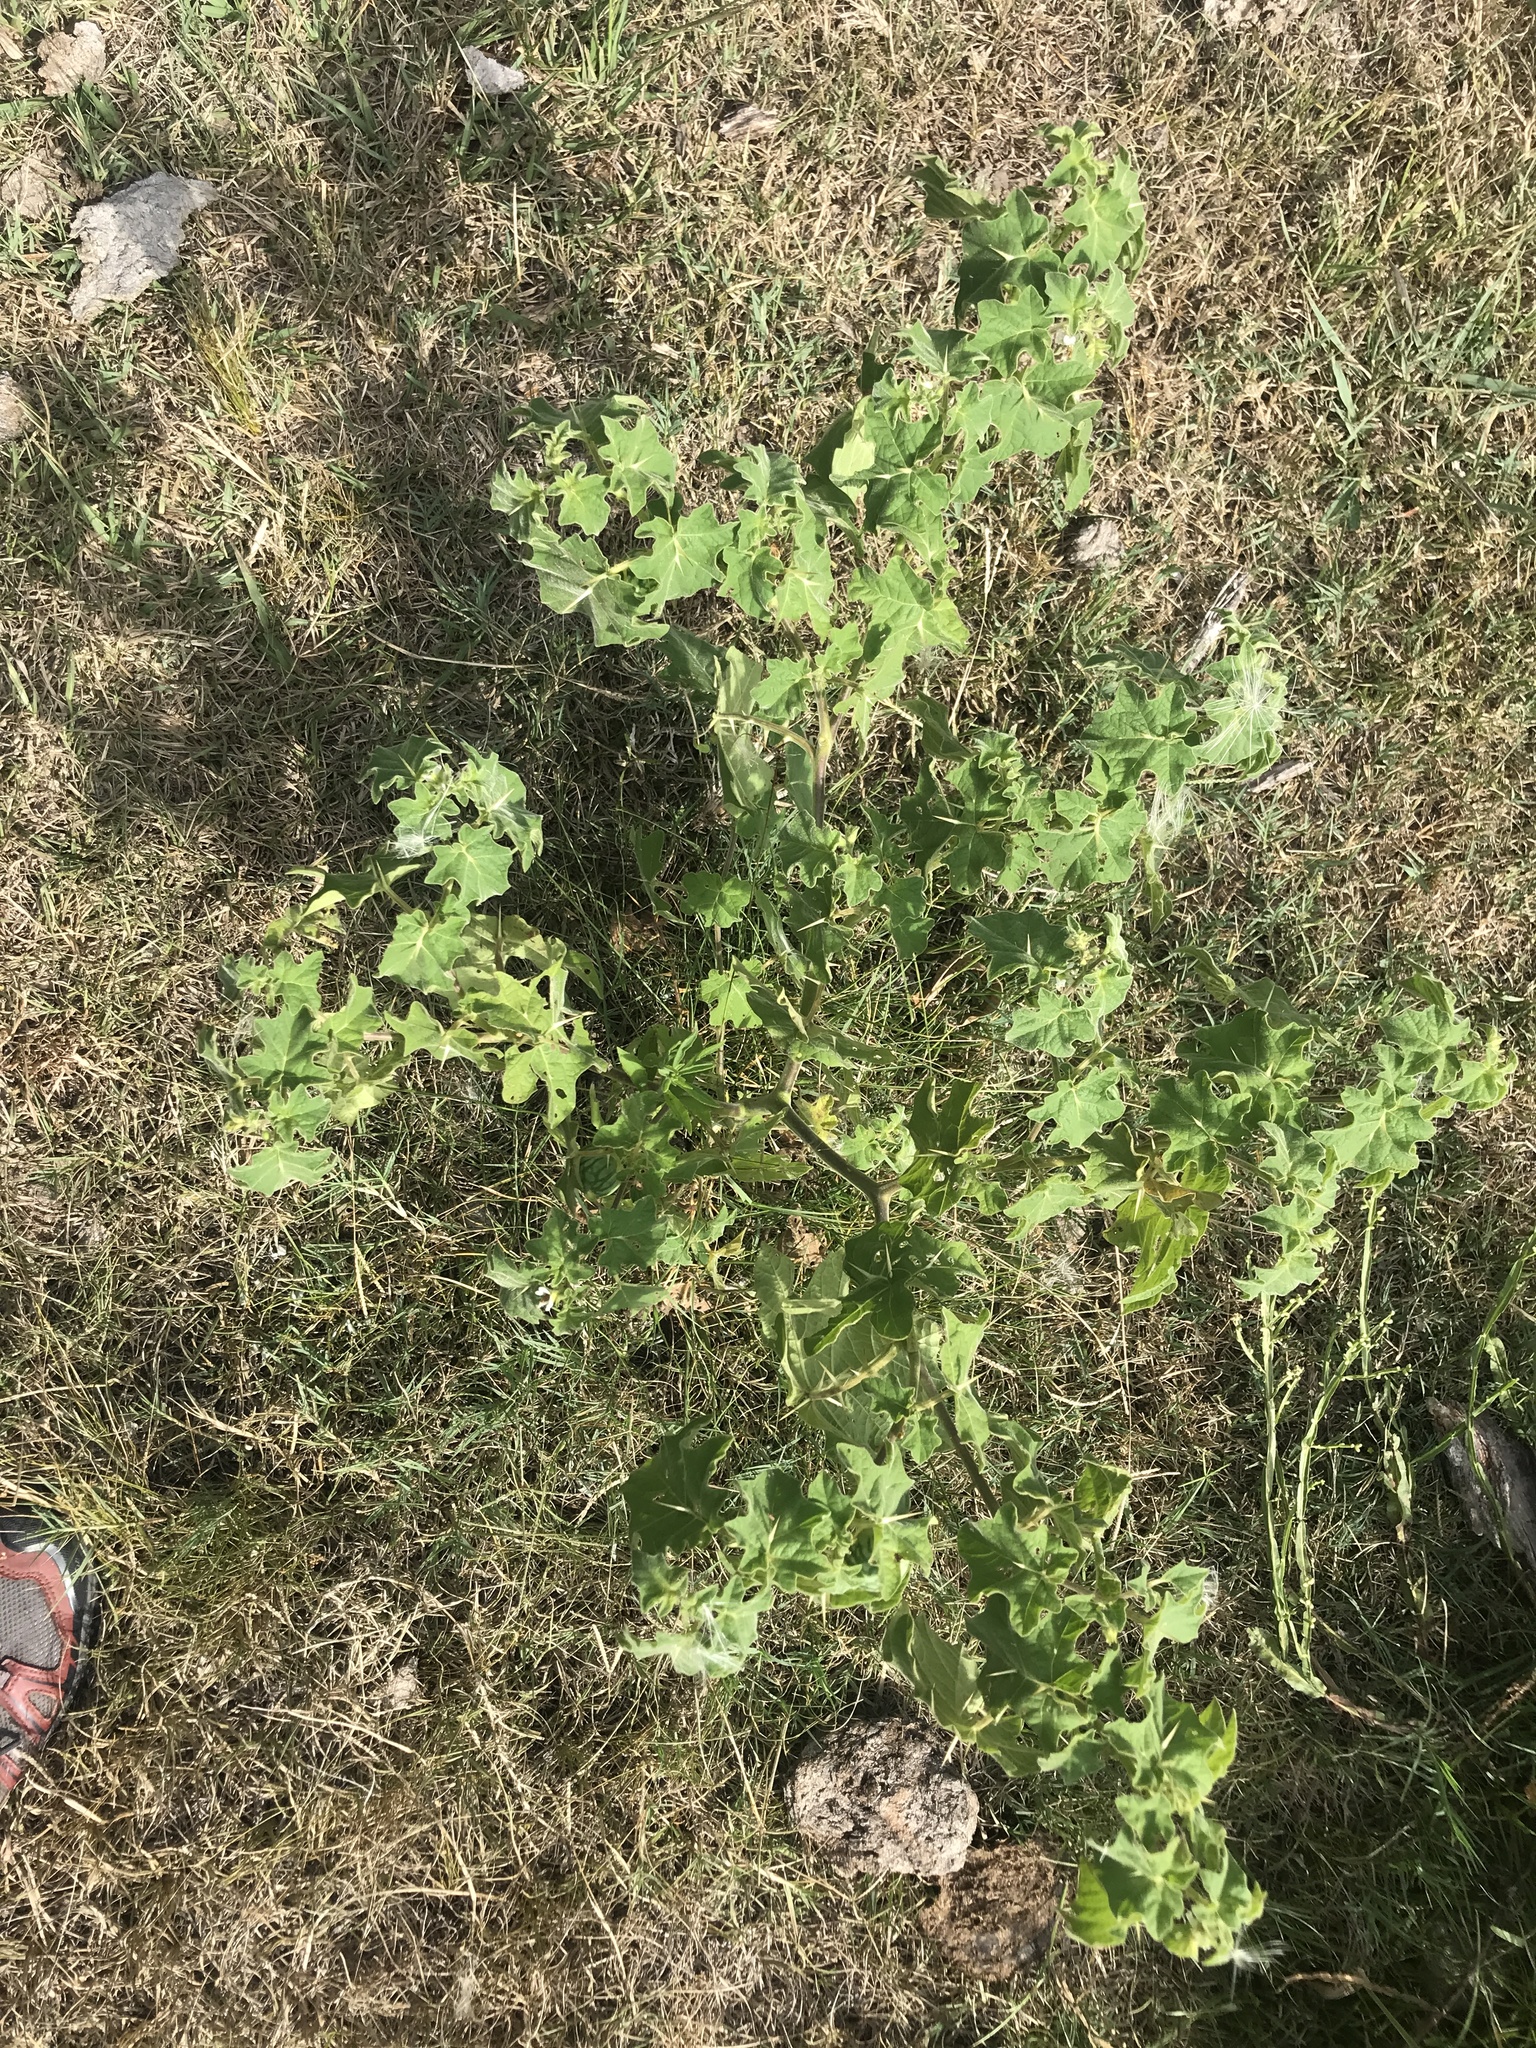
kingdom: Plantae
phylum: Tracheophyta
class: Magnoliopsida
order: Solanales
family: Solanaceae
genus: Solanum
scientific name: Solanum viarum
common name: Tropical soda apple
